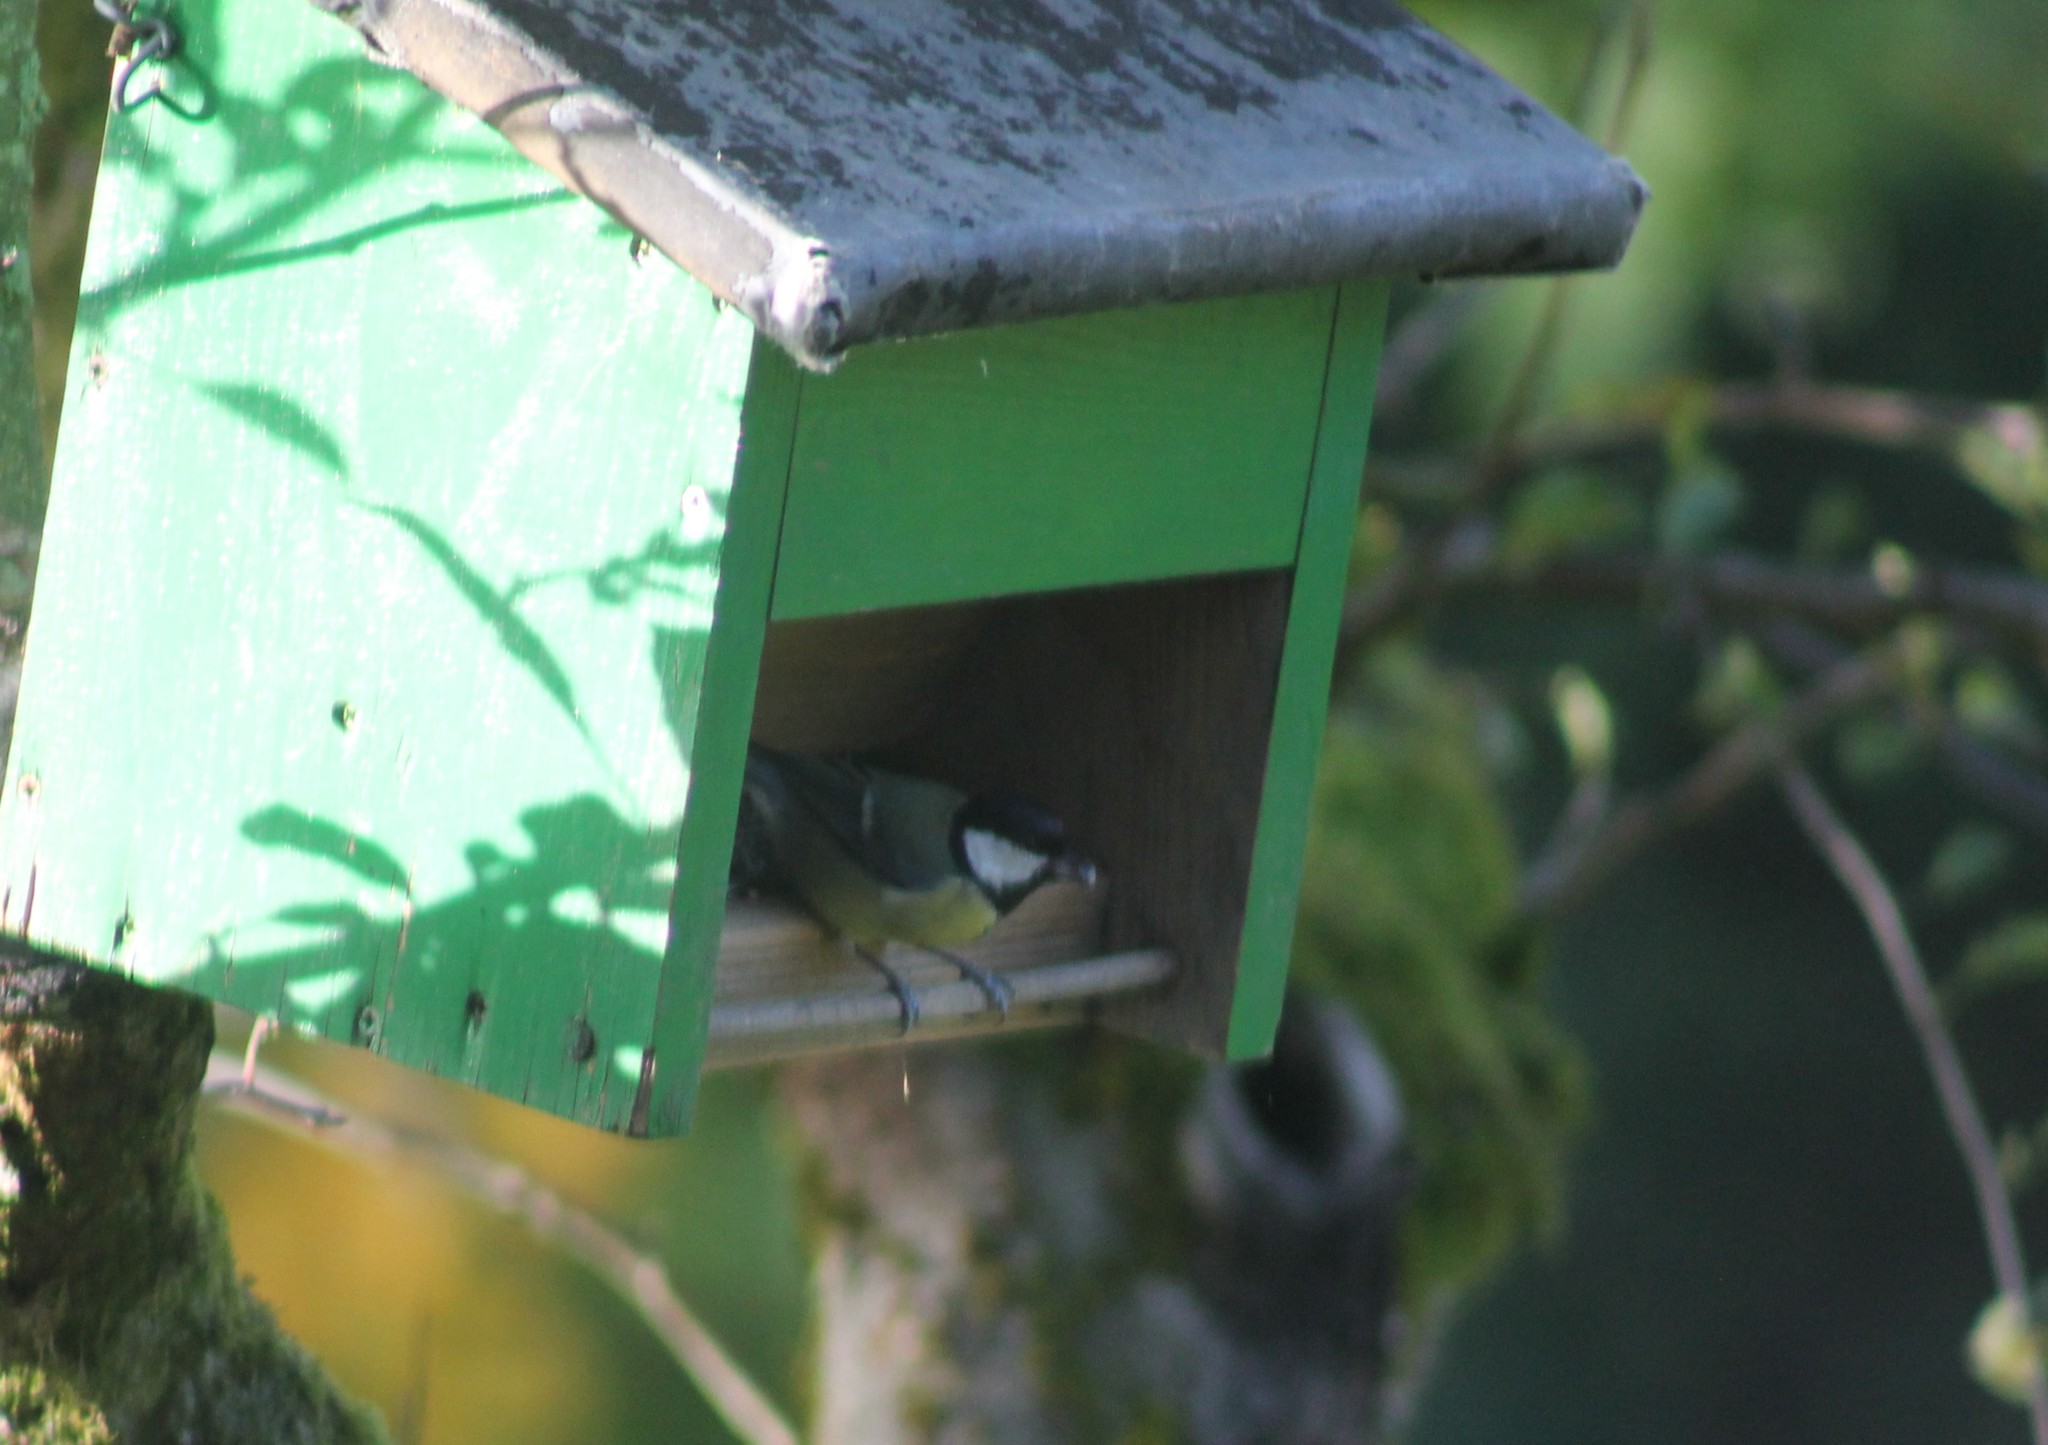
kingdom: Animalia
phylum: Chordata
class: Aves
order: Passeriformes
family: Paridae
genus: Parus
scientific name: Parus major
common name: Great tit
